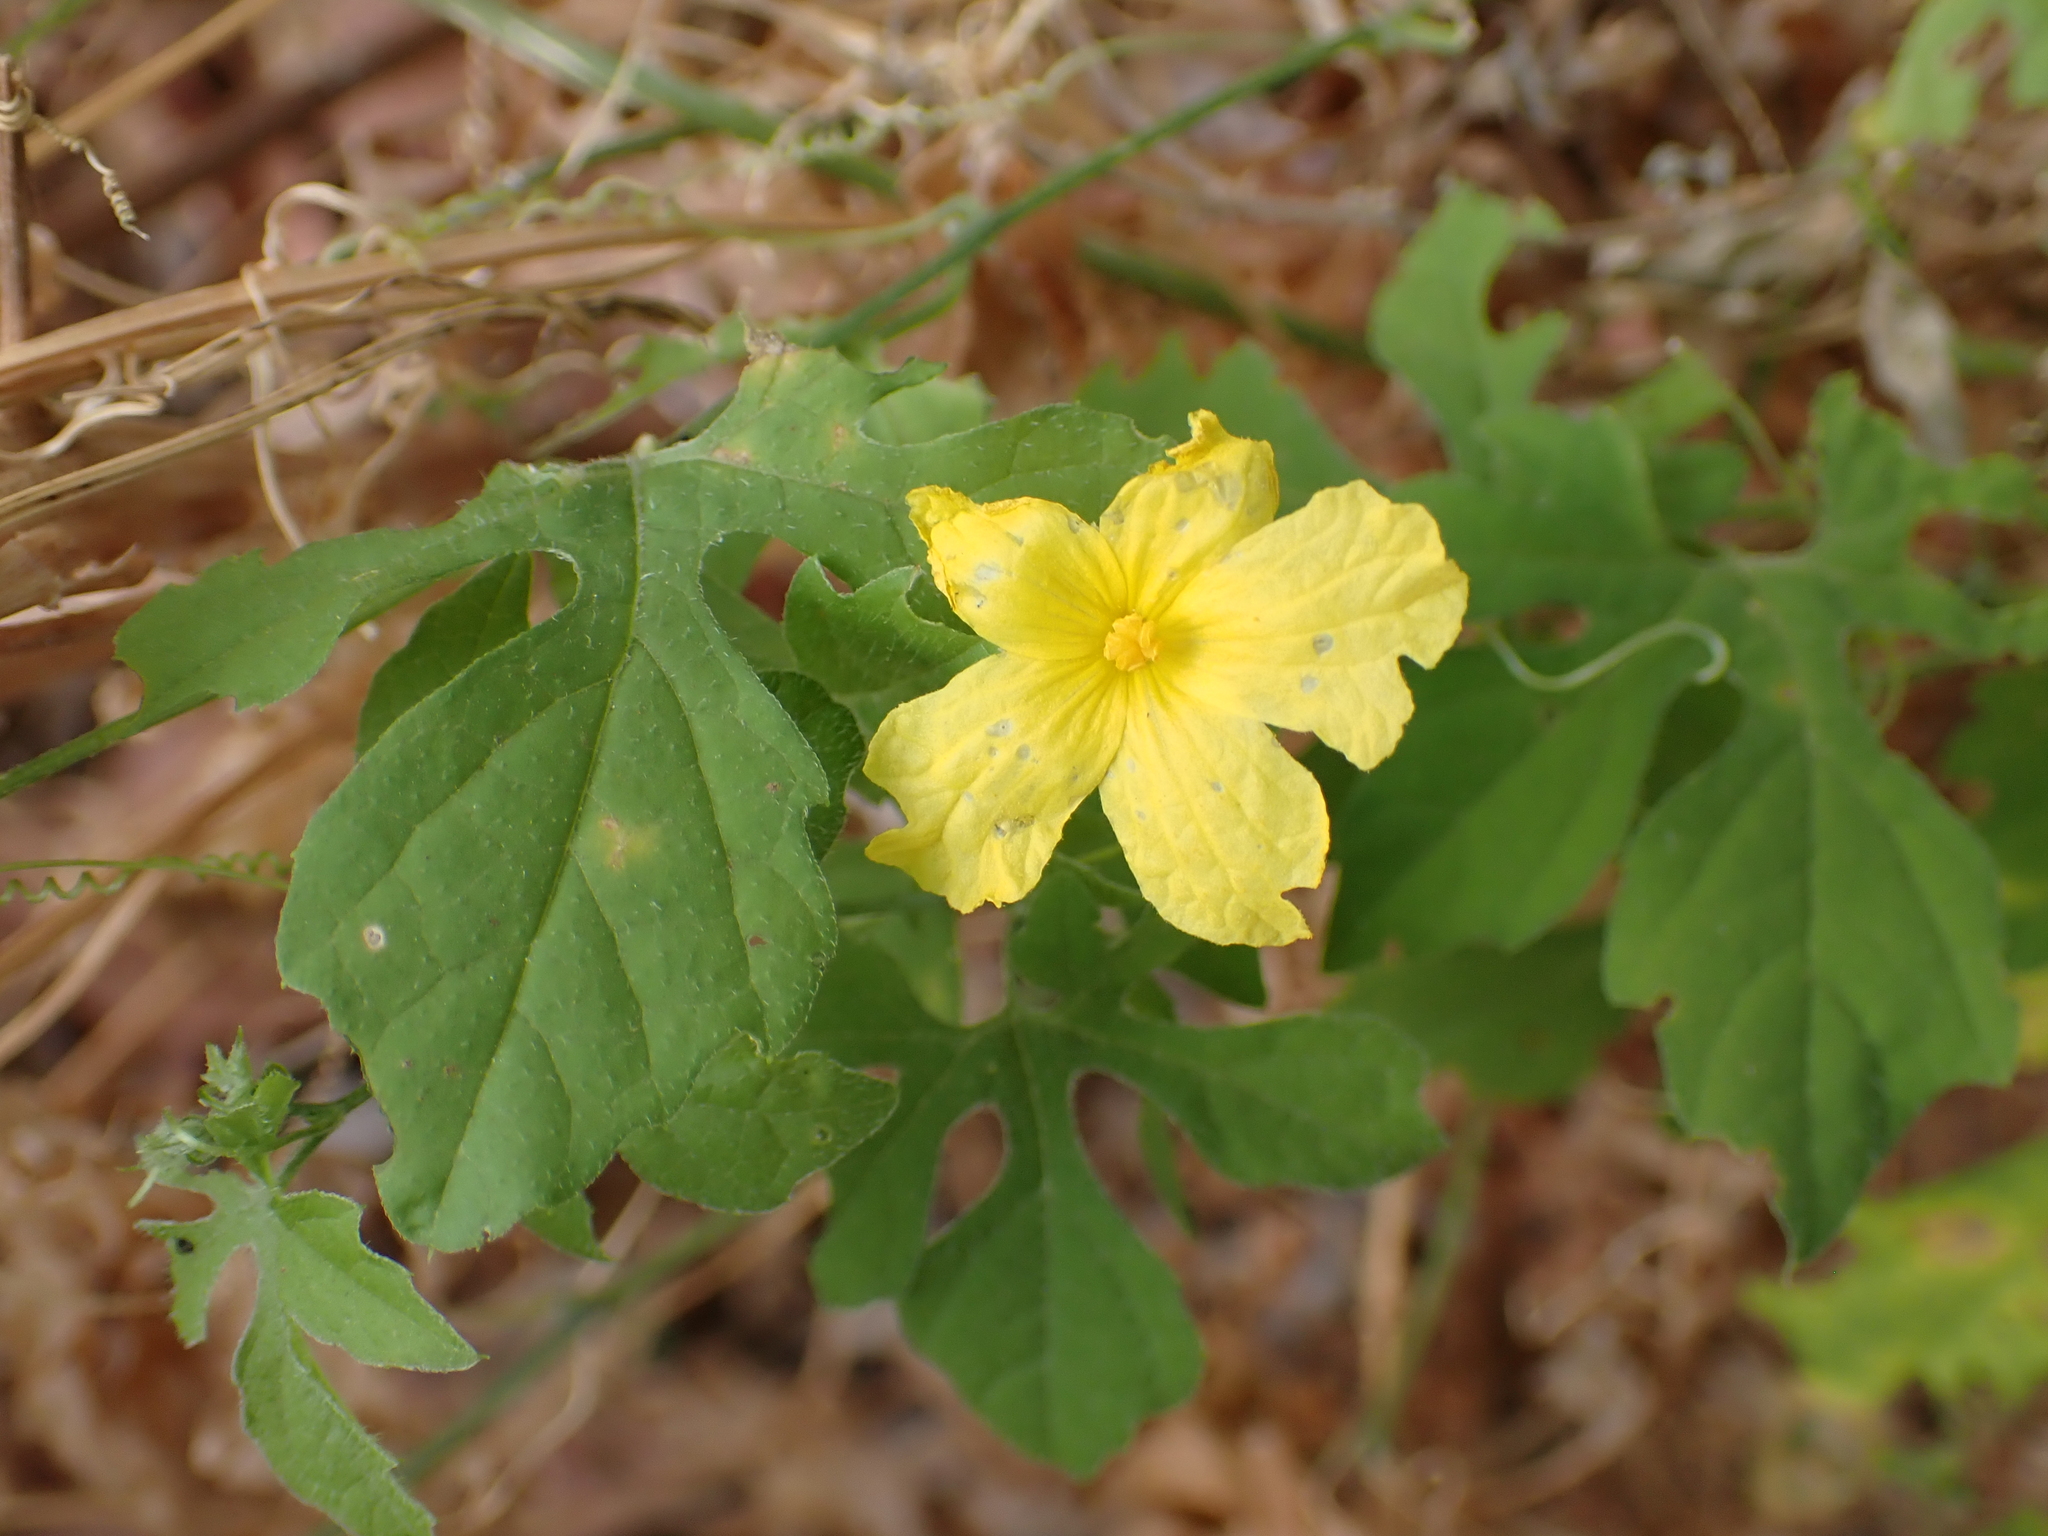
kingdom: Plantae
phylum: Tracheophyta
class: Magnoliopsida
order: Cucurbitales
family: Cucurbitaceae
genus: Momordica
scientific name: Momordica charantia
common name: Balsampear
